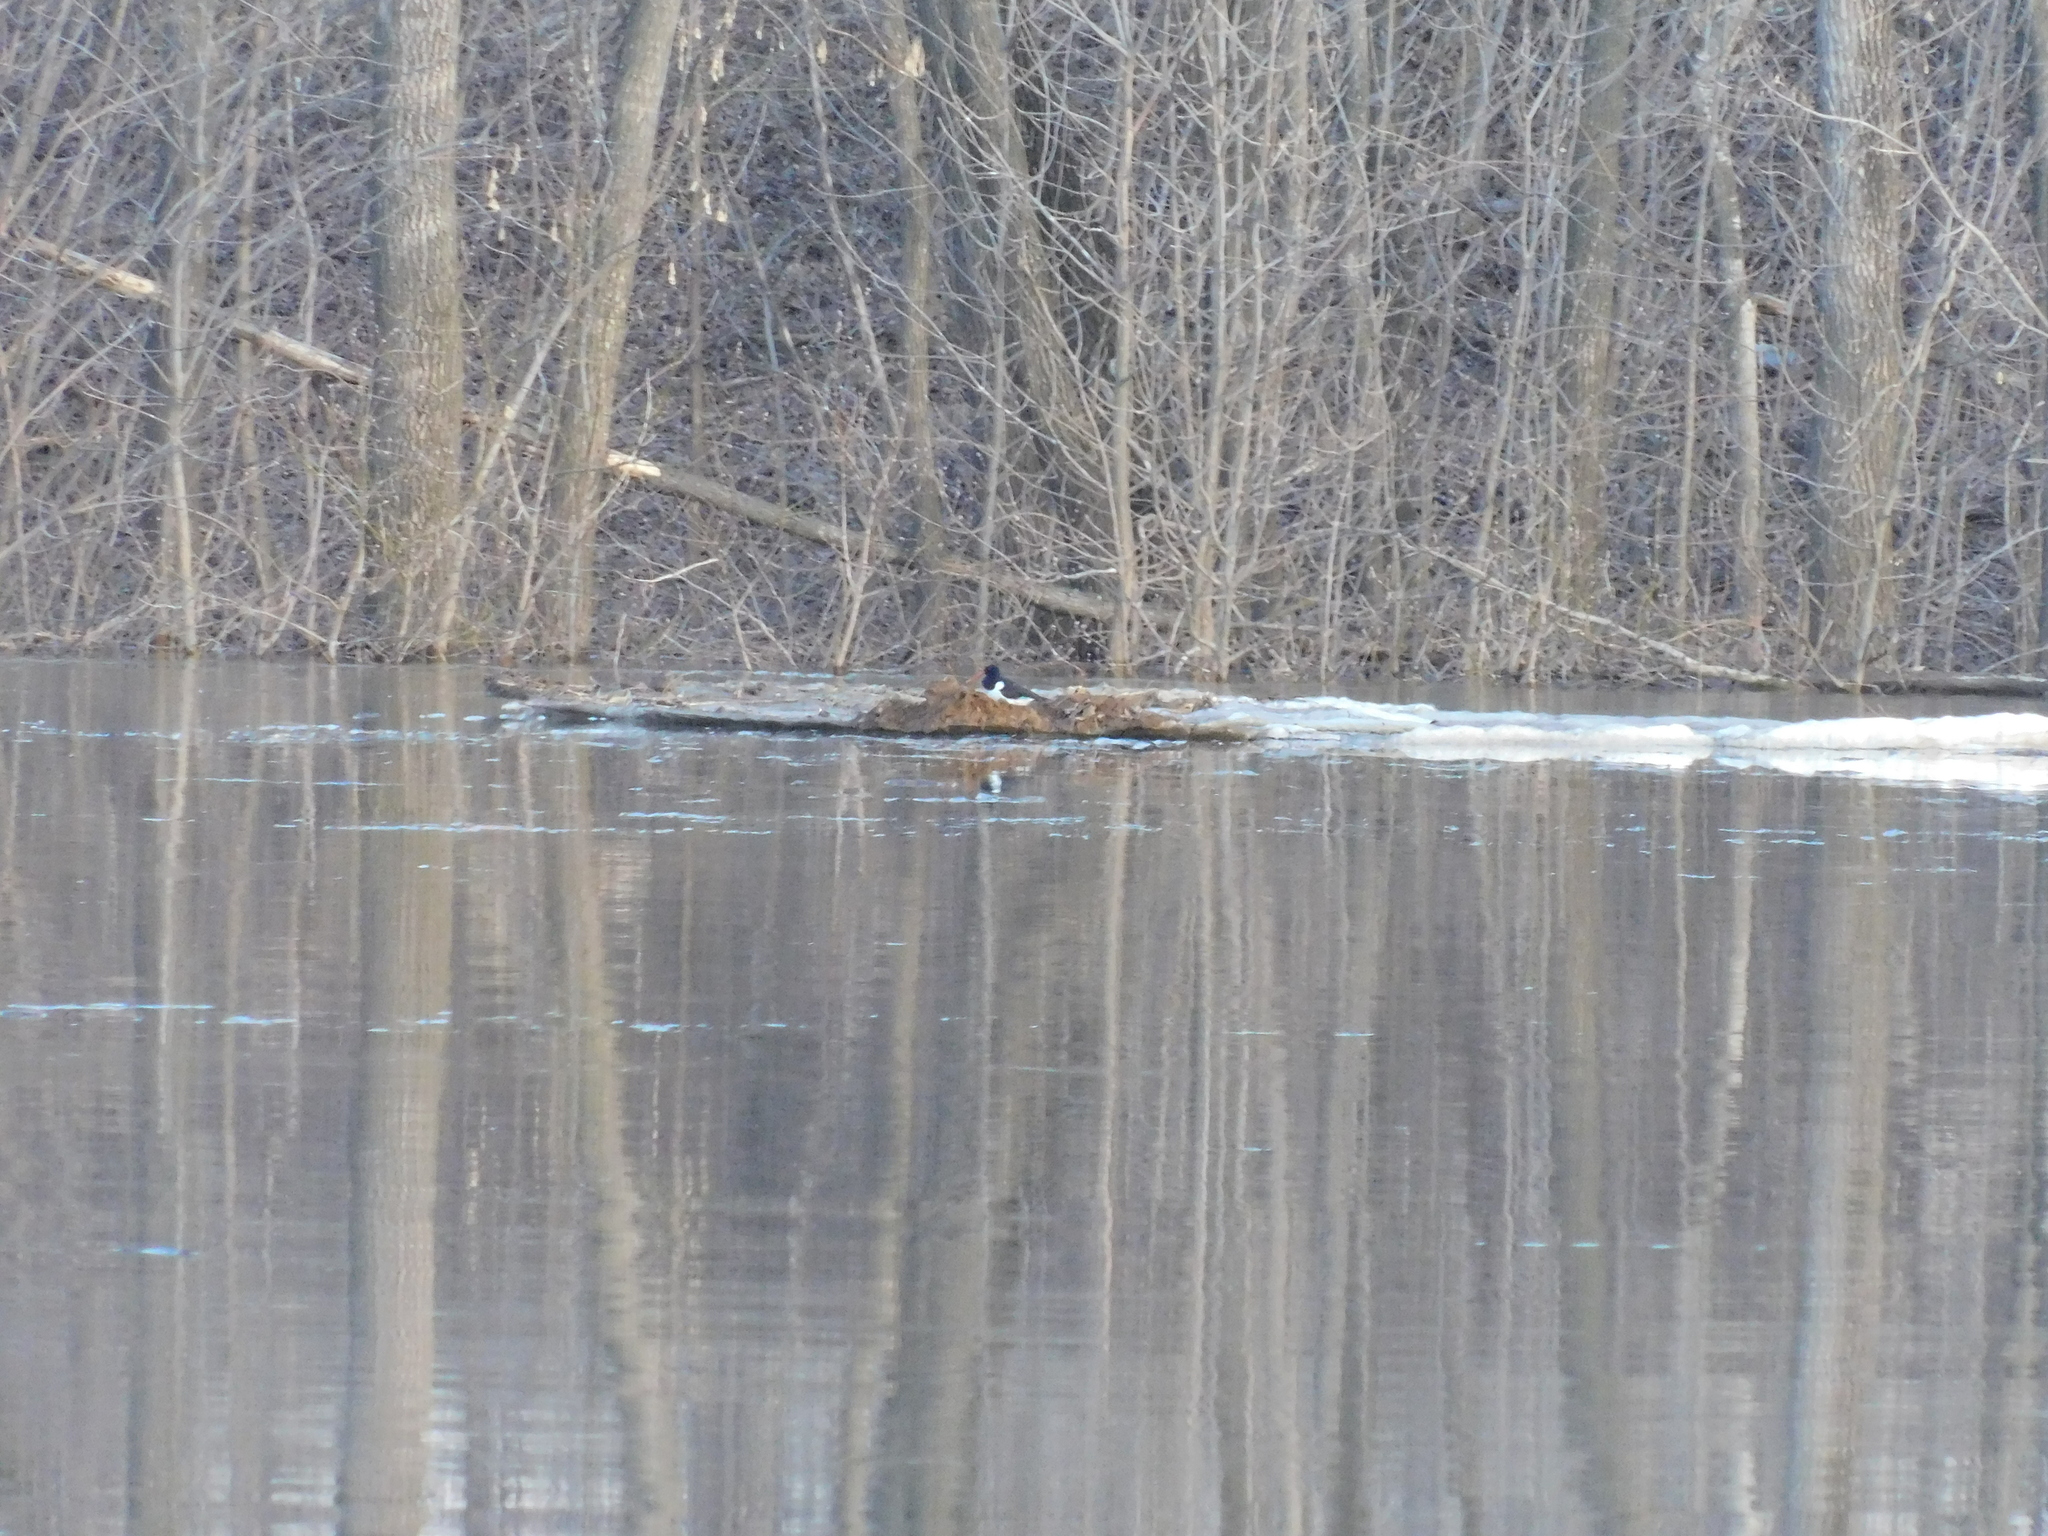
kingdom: Animalia
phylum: Chordata
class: Aves
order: Charadriiformes
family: Haematopodidae
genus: Haematopus
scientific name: Haematopus ostralegus
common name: Eurasian oystercatcher
